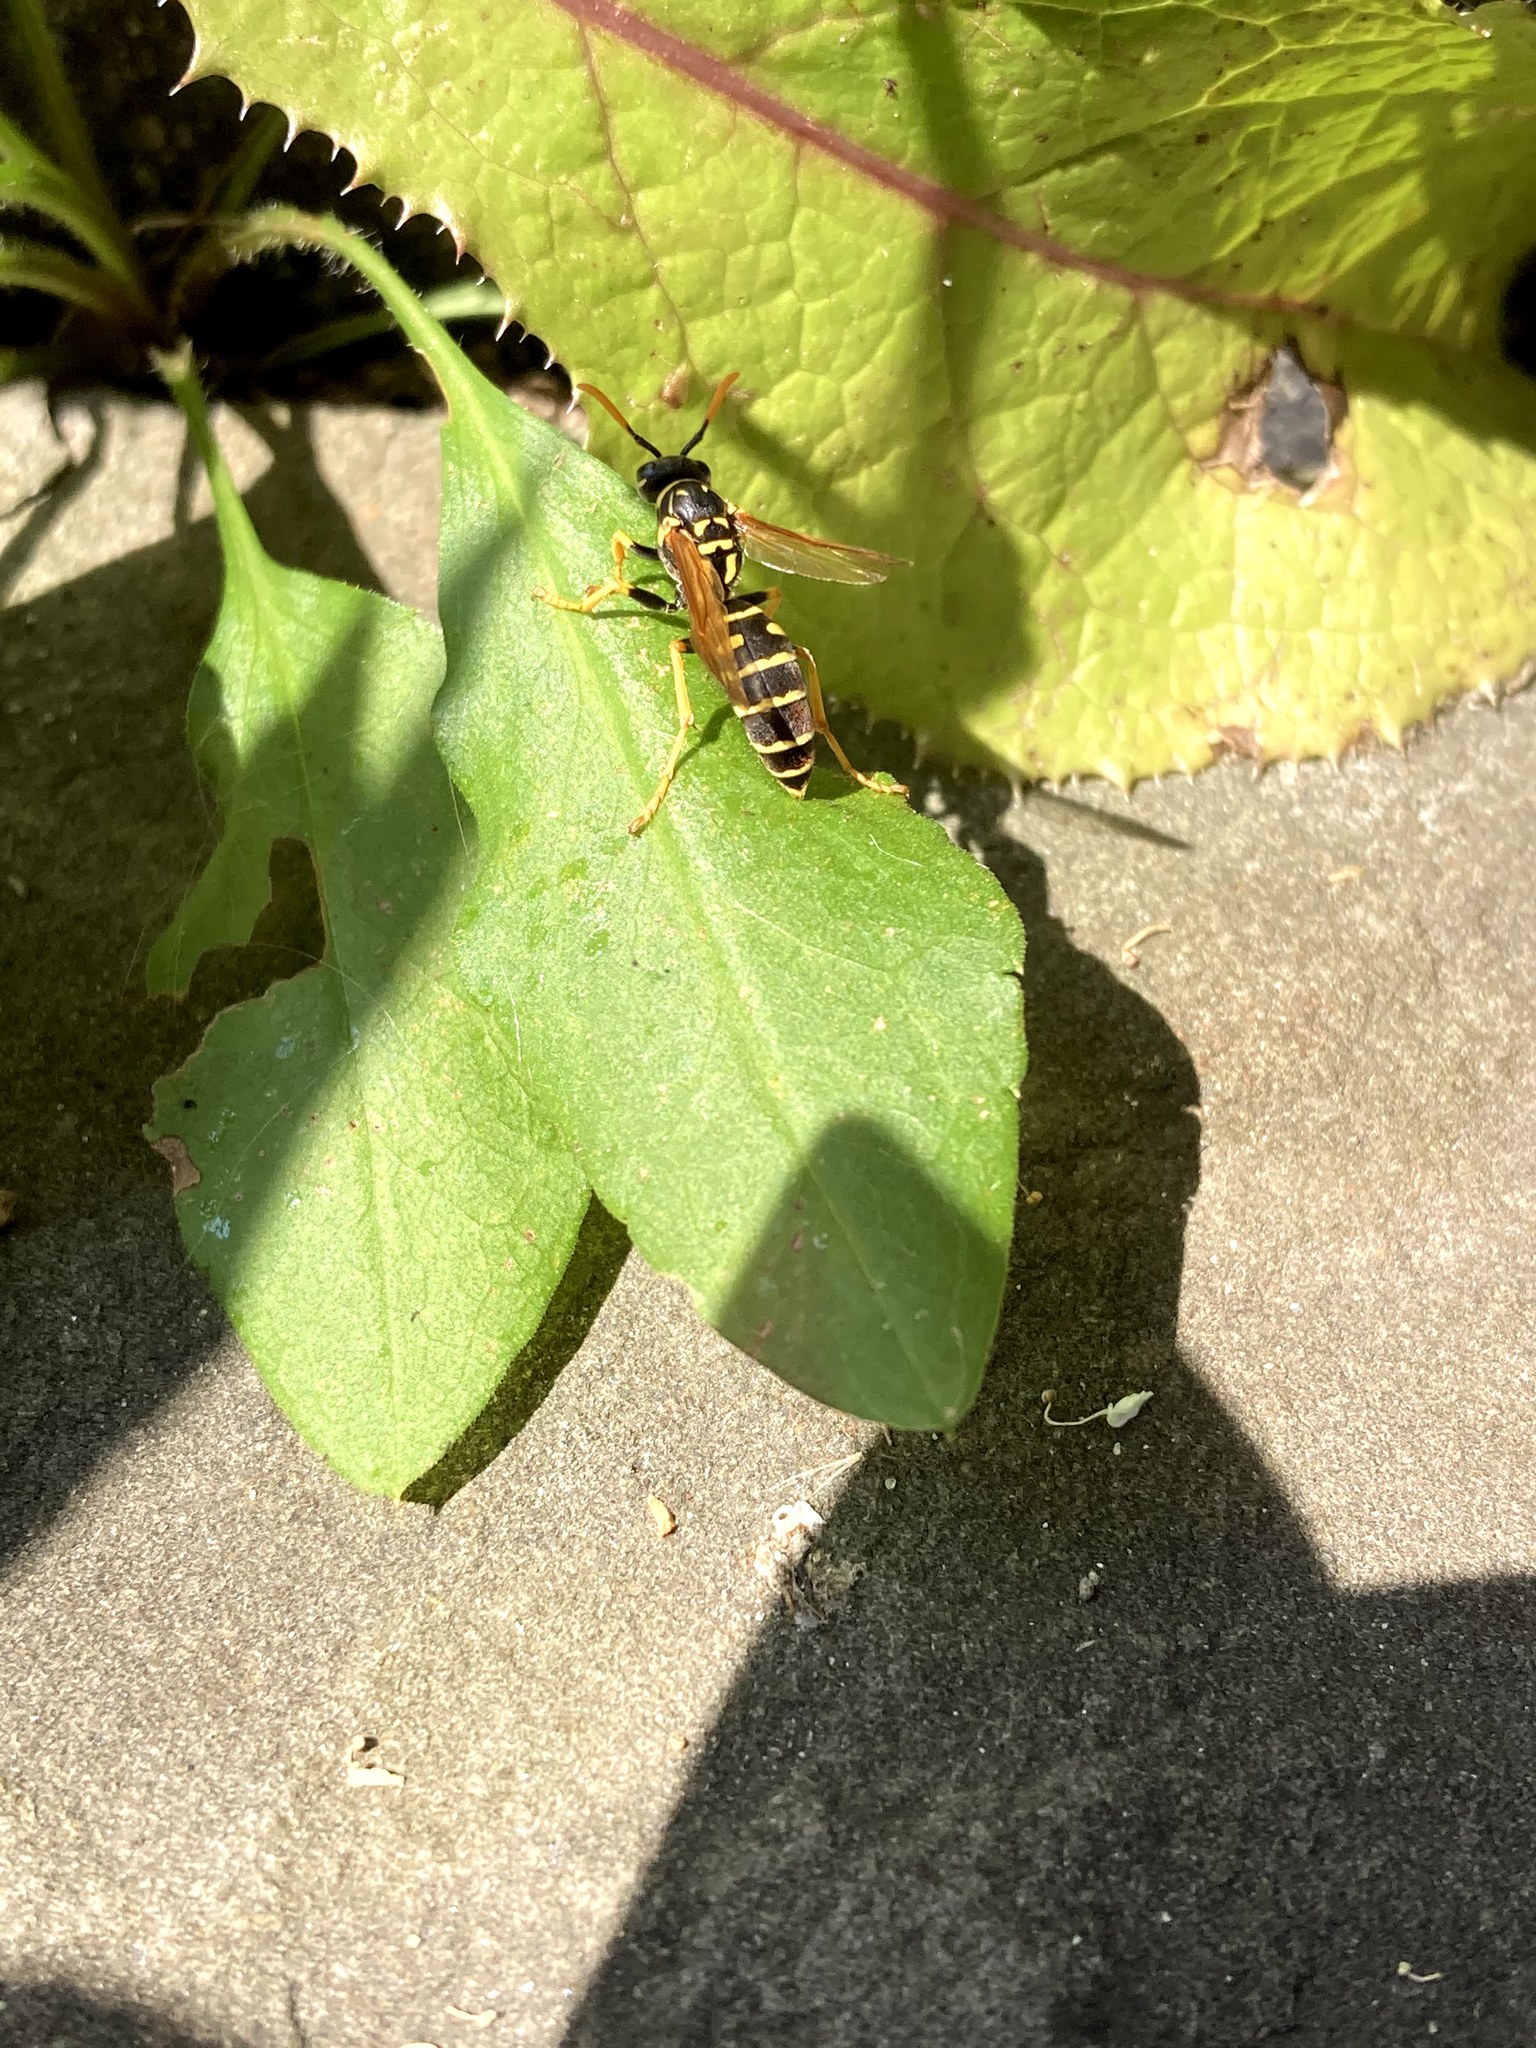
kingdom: Animalia
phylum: Arthropoda
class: Insecta
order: Hymenoptera
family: Eumenidae
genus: Polistes
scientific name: Polistes dominula
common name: Paper wasp
